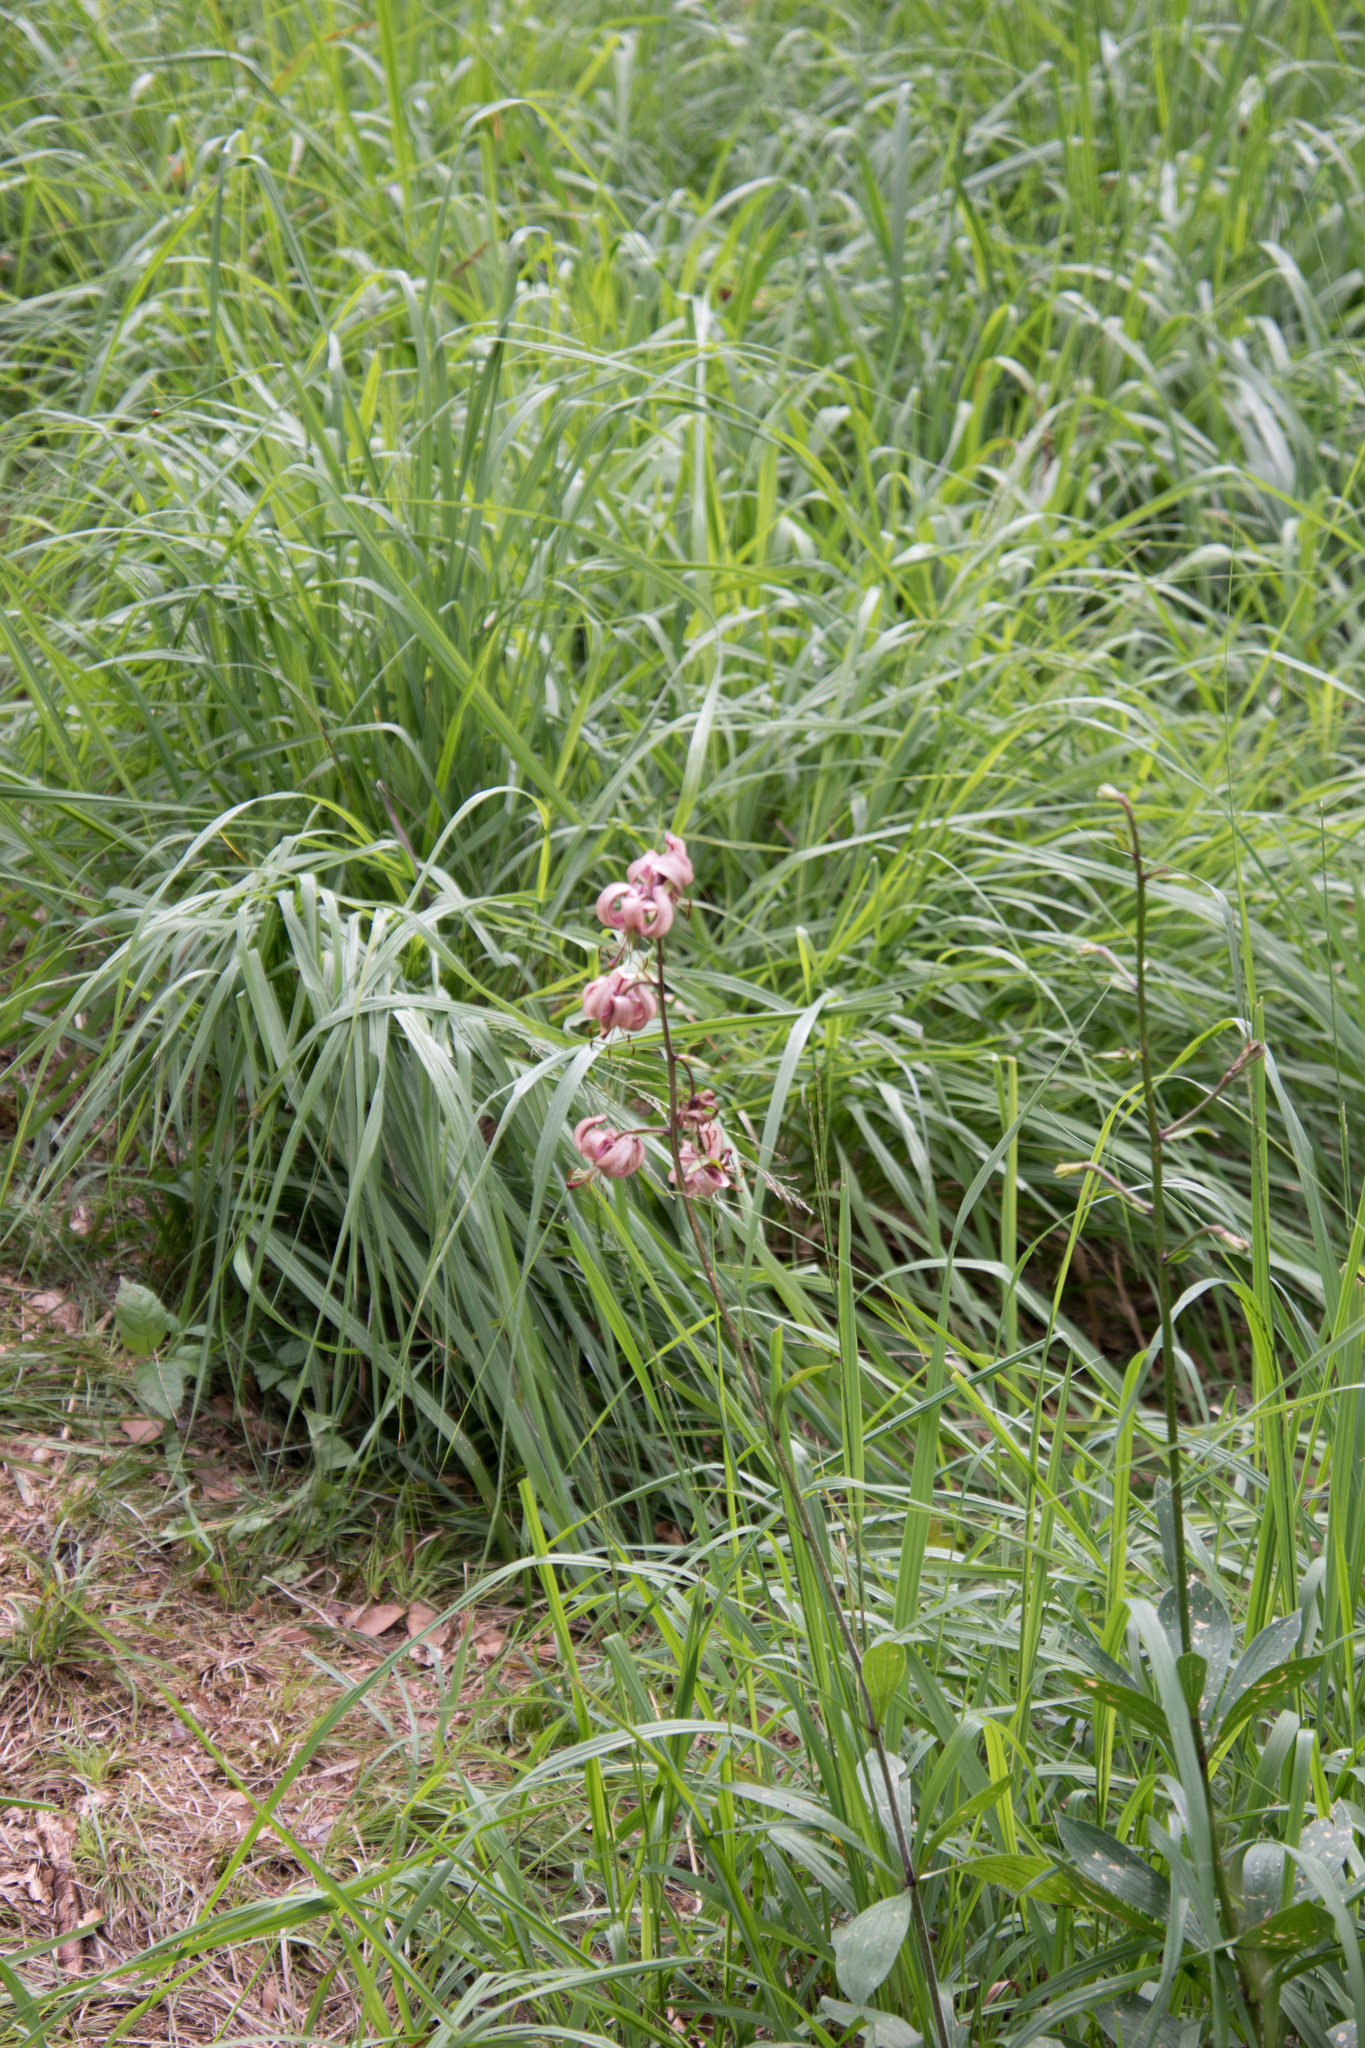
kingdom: Plantae
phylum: Tracheophyta
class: Liliopsida
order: Liliales
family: Liliaceae
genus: Lilium
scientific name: Lilium martagon
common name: Martagon lily
